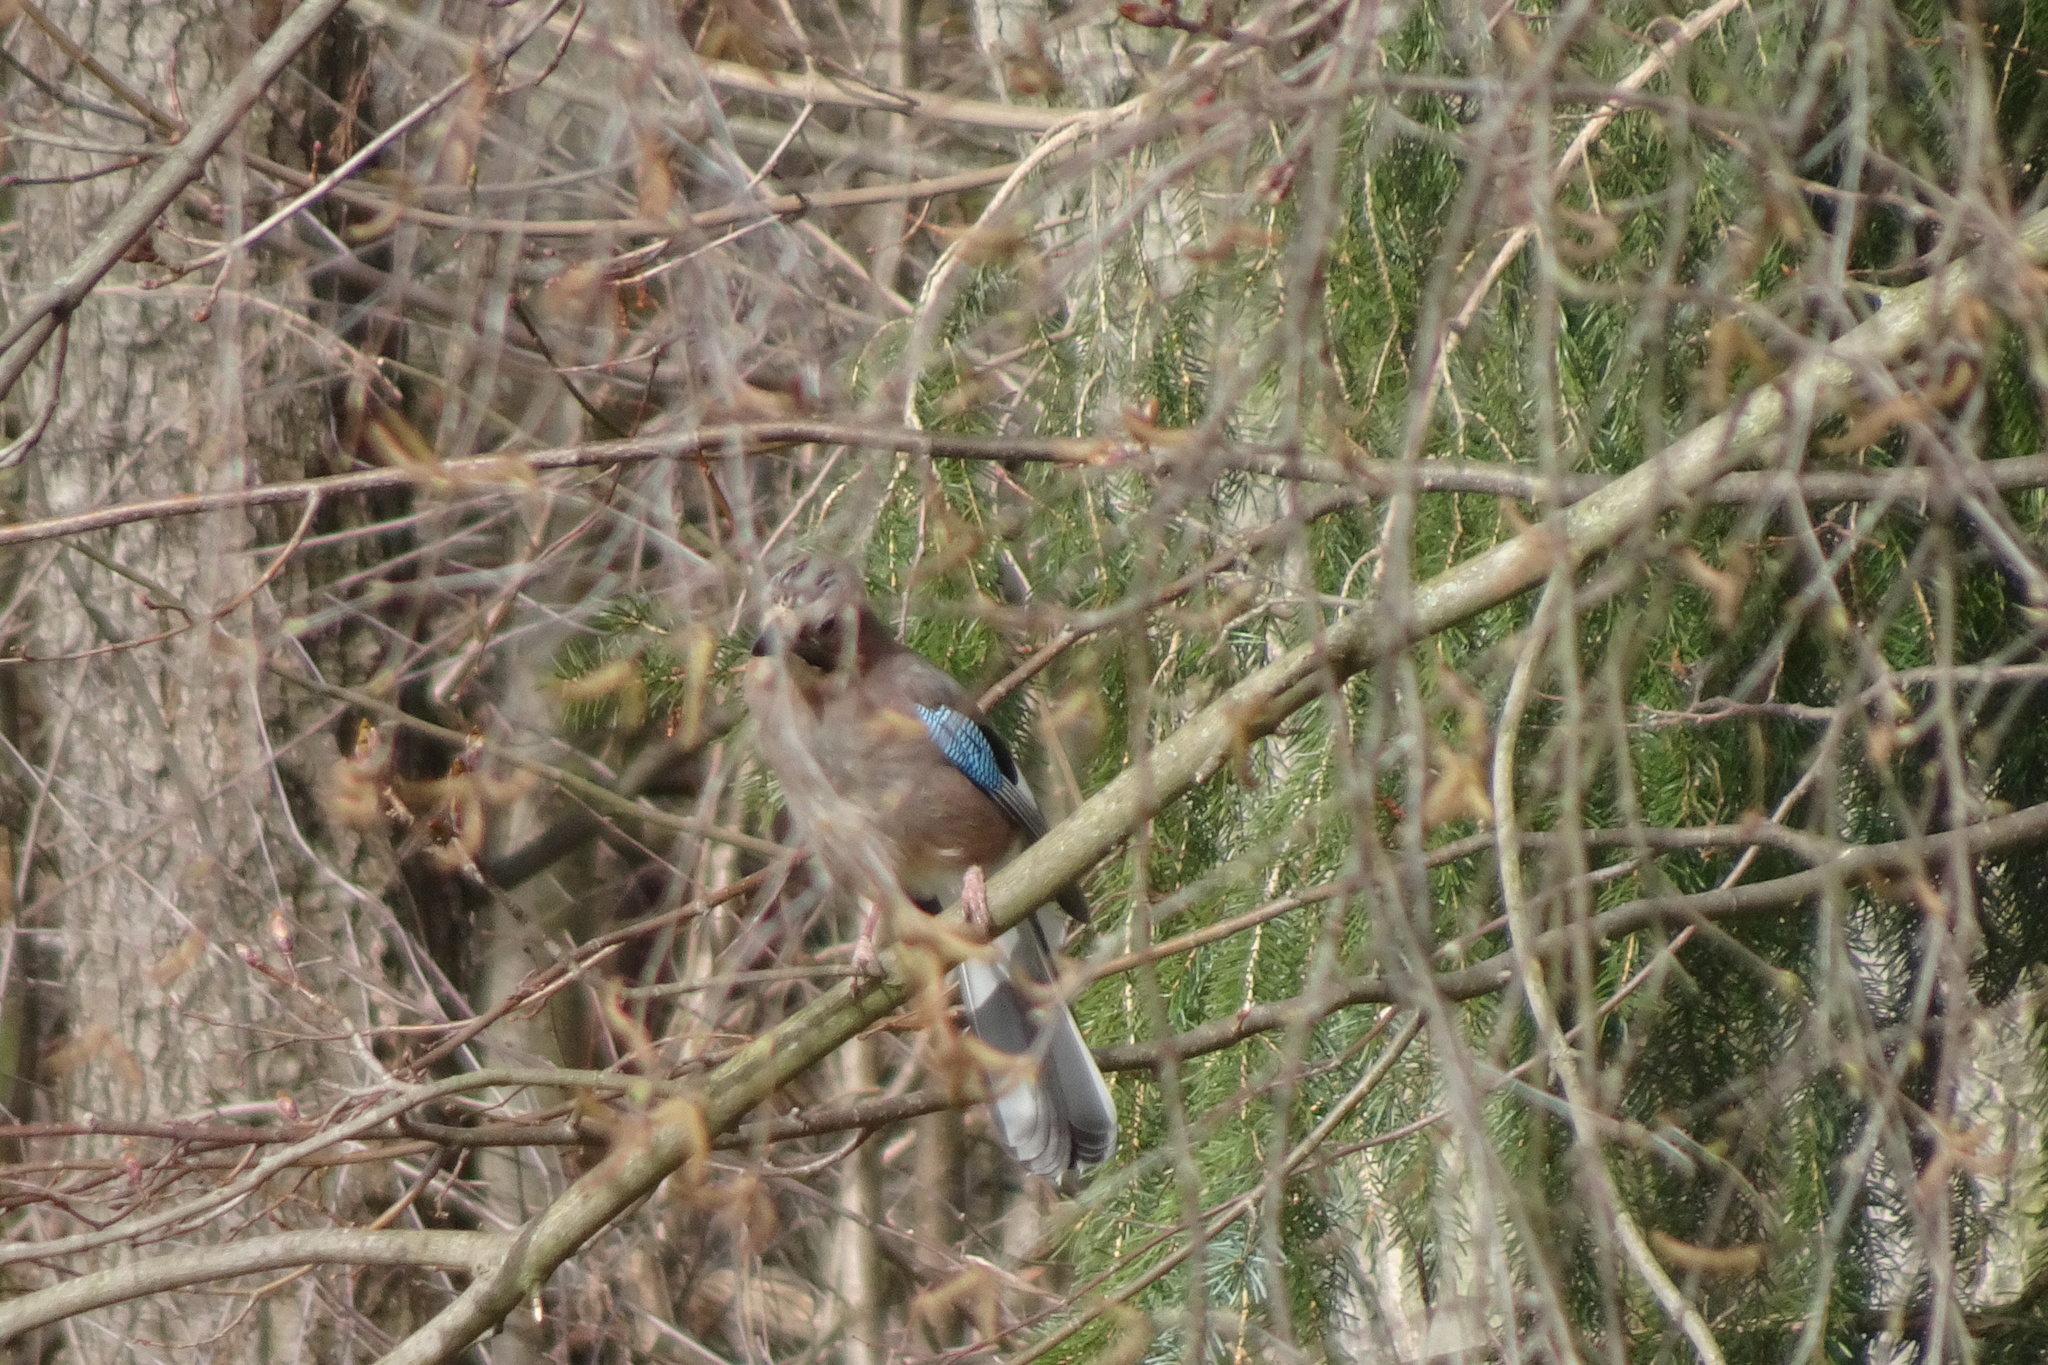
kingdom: Animalia
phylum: Chordata
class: Aves
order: Passeriformes
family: Corvidae
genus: Garrulus
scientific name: Garrulus glandarius
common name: Eurasian jay
